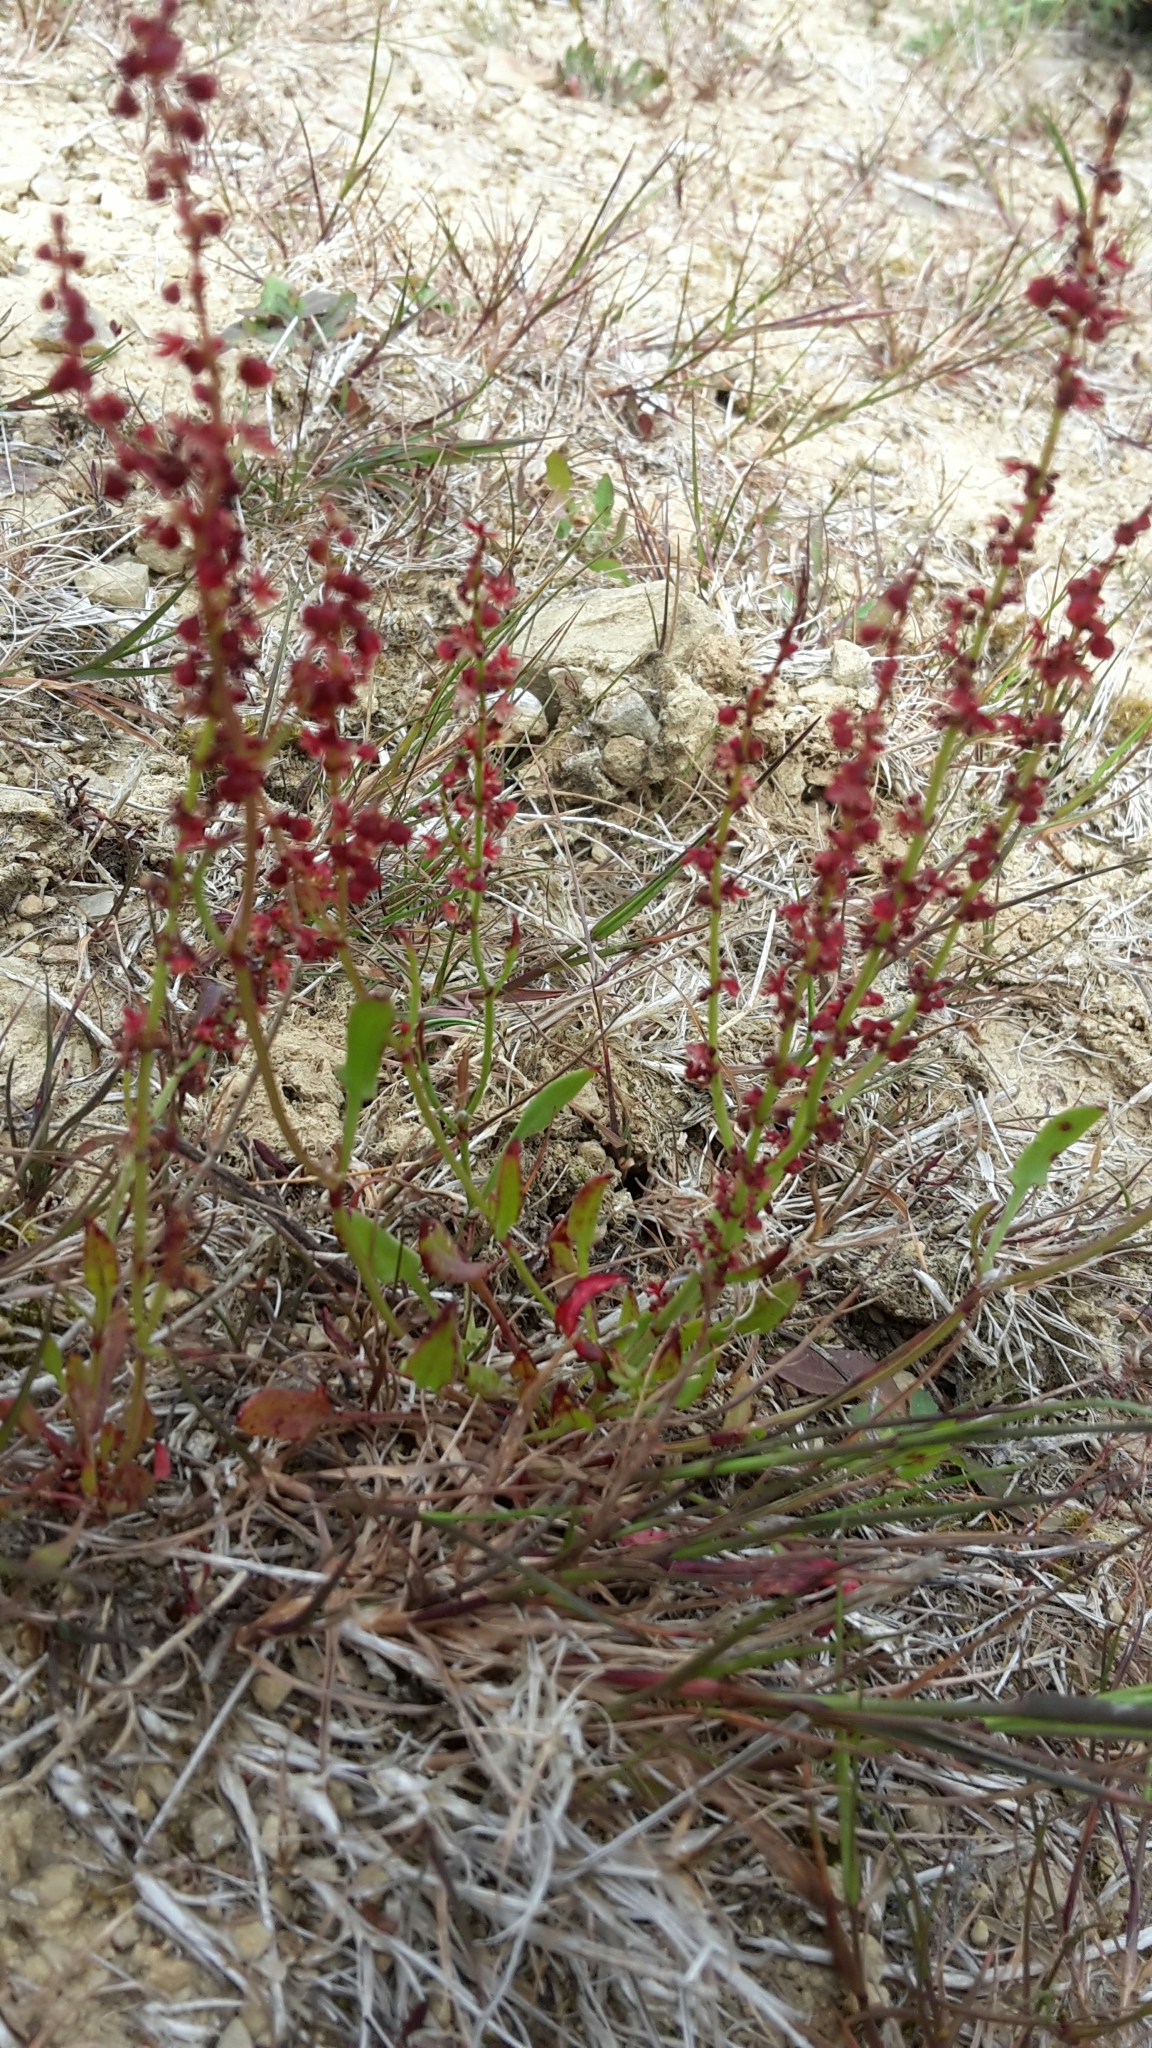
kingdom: Plantae
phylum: Tracheophyta
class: Magnoliopsida
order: Caryophyllales
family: Polygonaceae
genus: Rumex
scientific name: Rumex acetosella
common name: Common sheep sorrel
